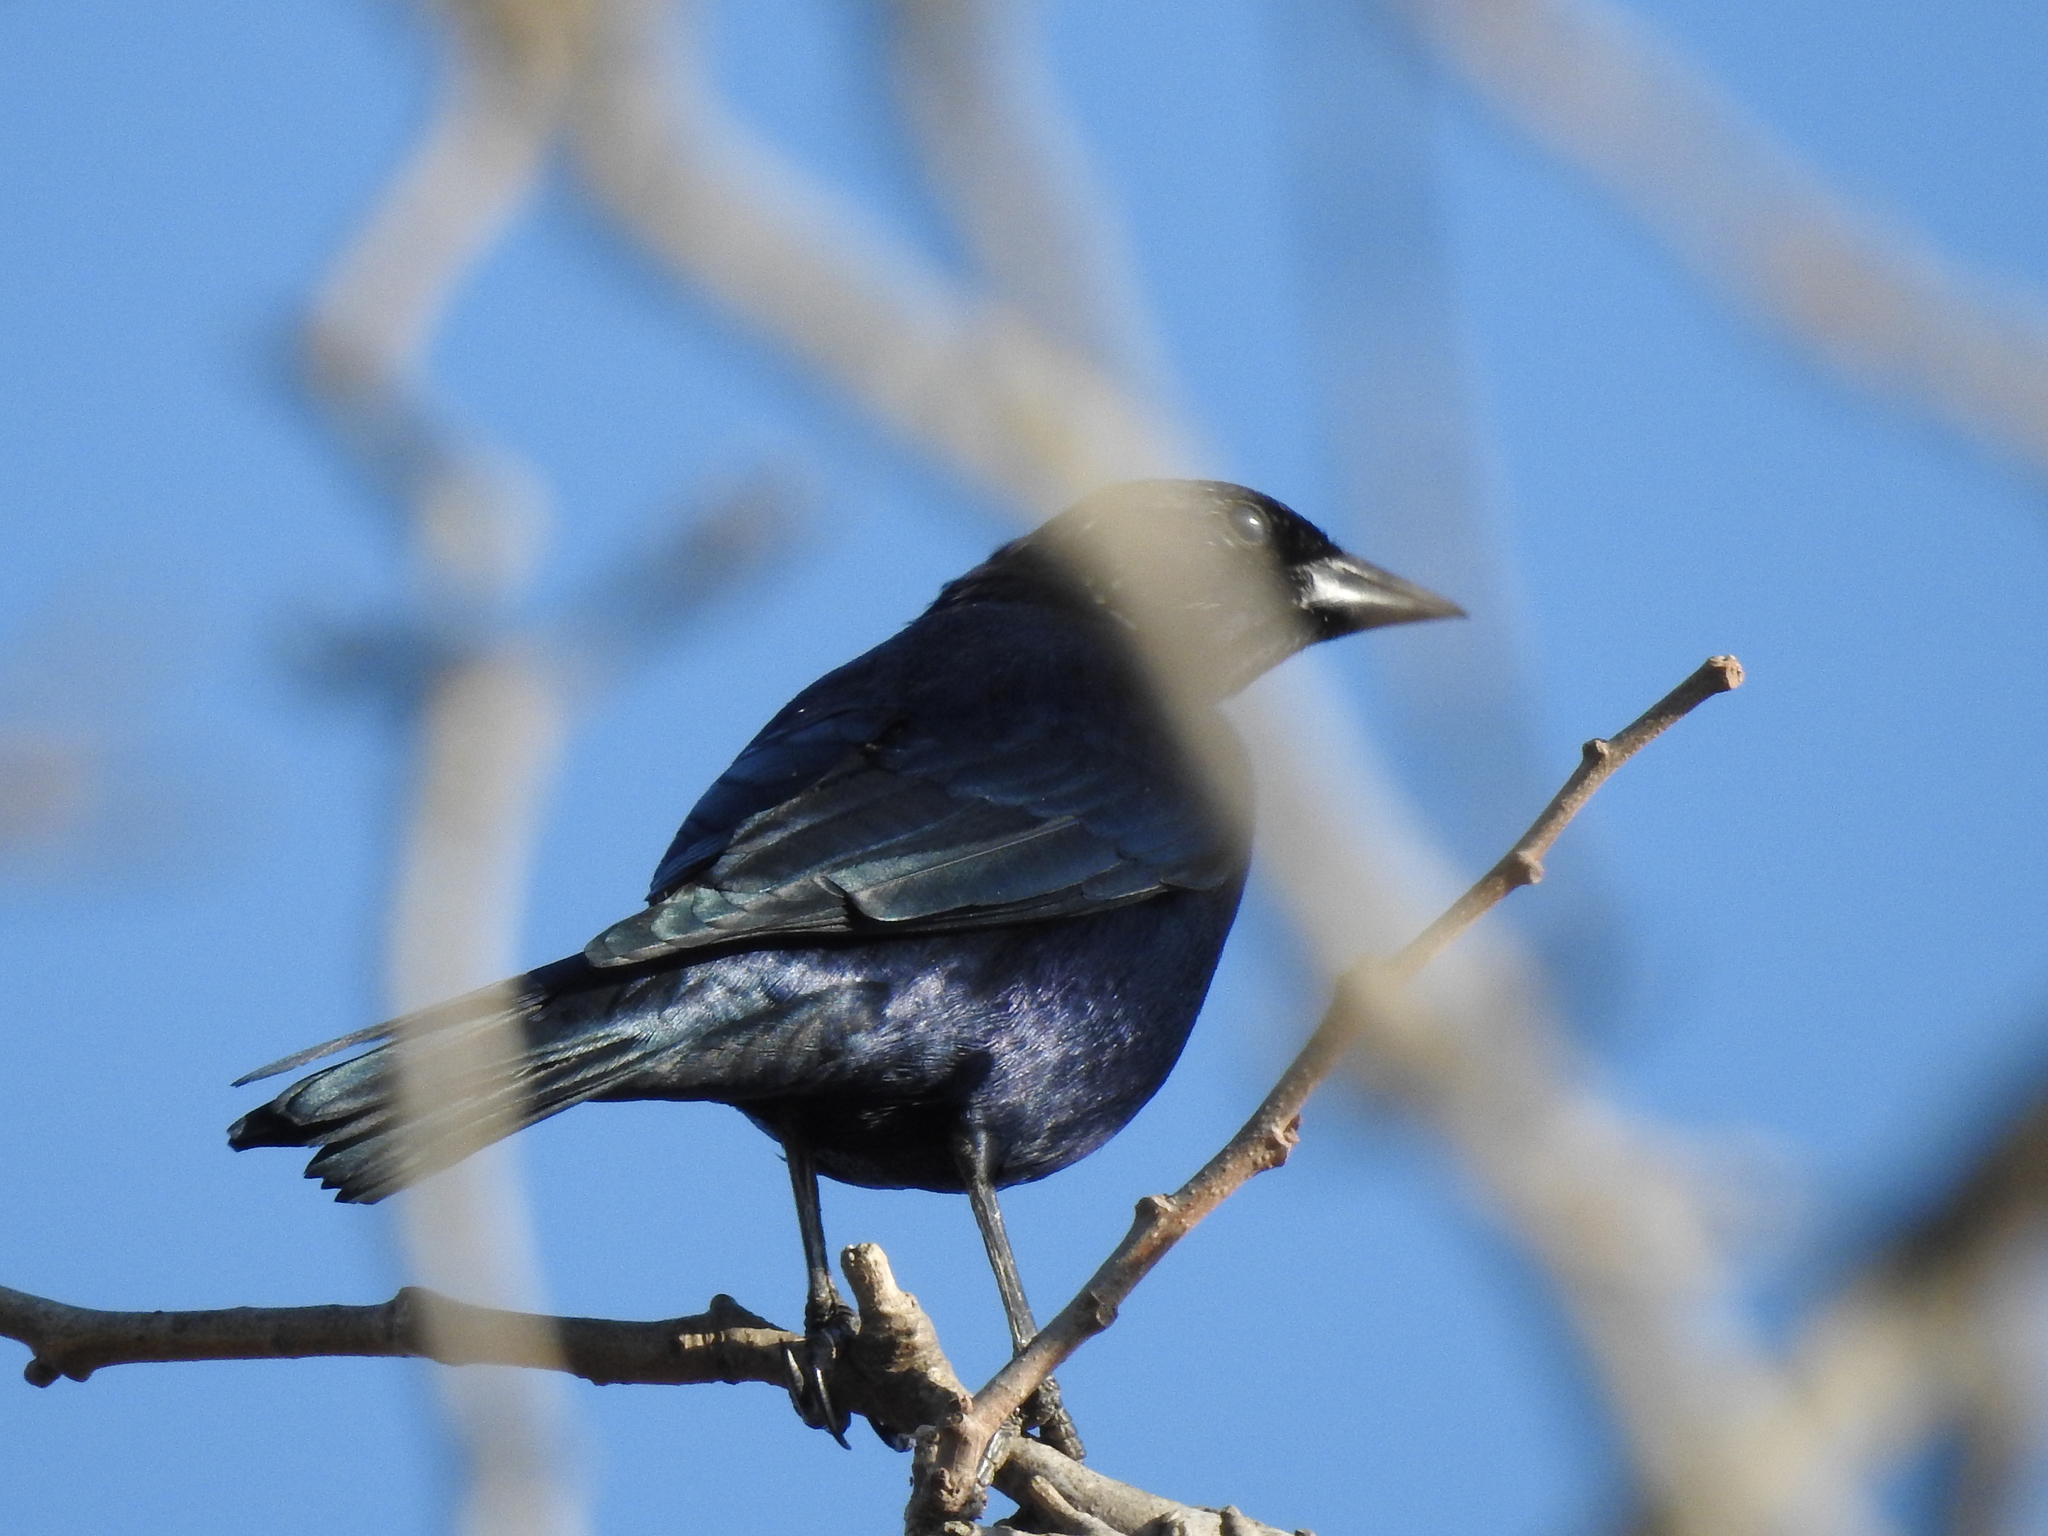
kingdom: Animalia
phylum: Chordata
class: Aves
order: Passeriformes
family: Icteridae
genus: Molothrus
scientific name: Molothrus bonariensis
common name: Shiny cowbird
